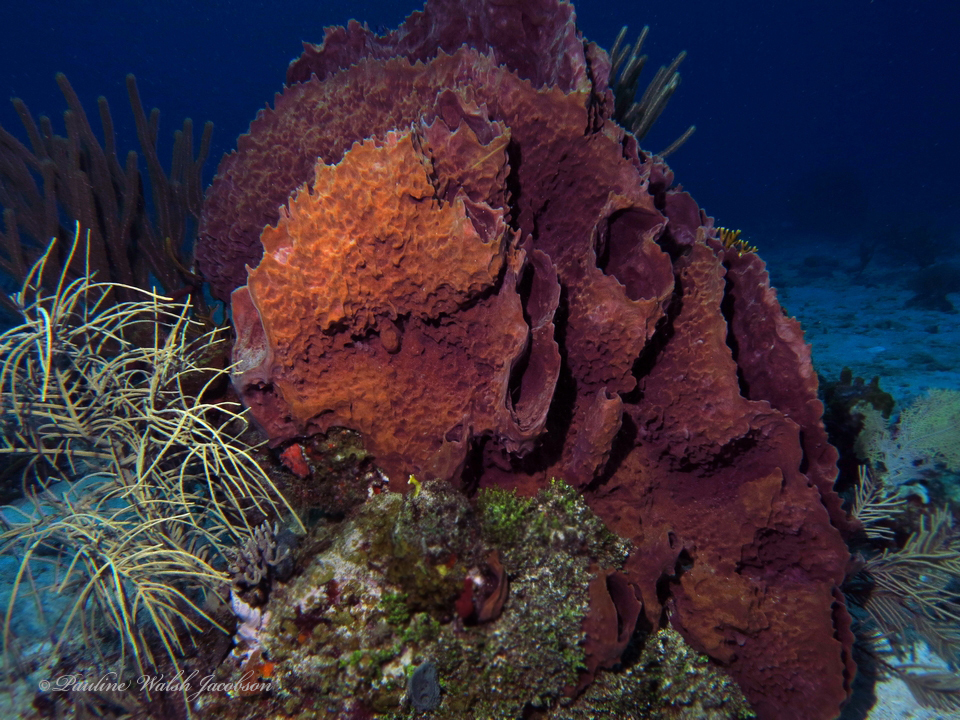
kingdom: Animalia
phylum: Porifera
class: Demospongiae
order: Haplosclerida
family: Petrosiidae
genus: Xestospongia
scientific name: Xestospongia muta
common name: Giant barrel sponge
